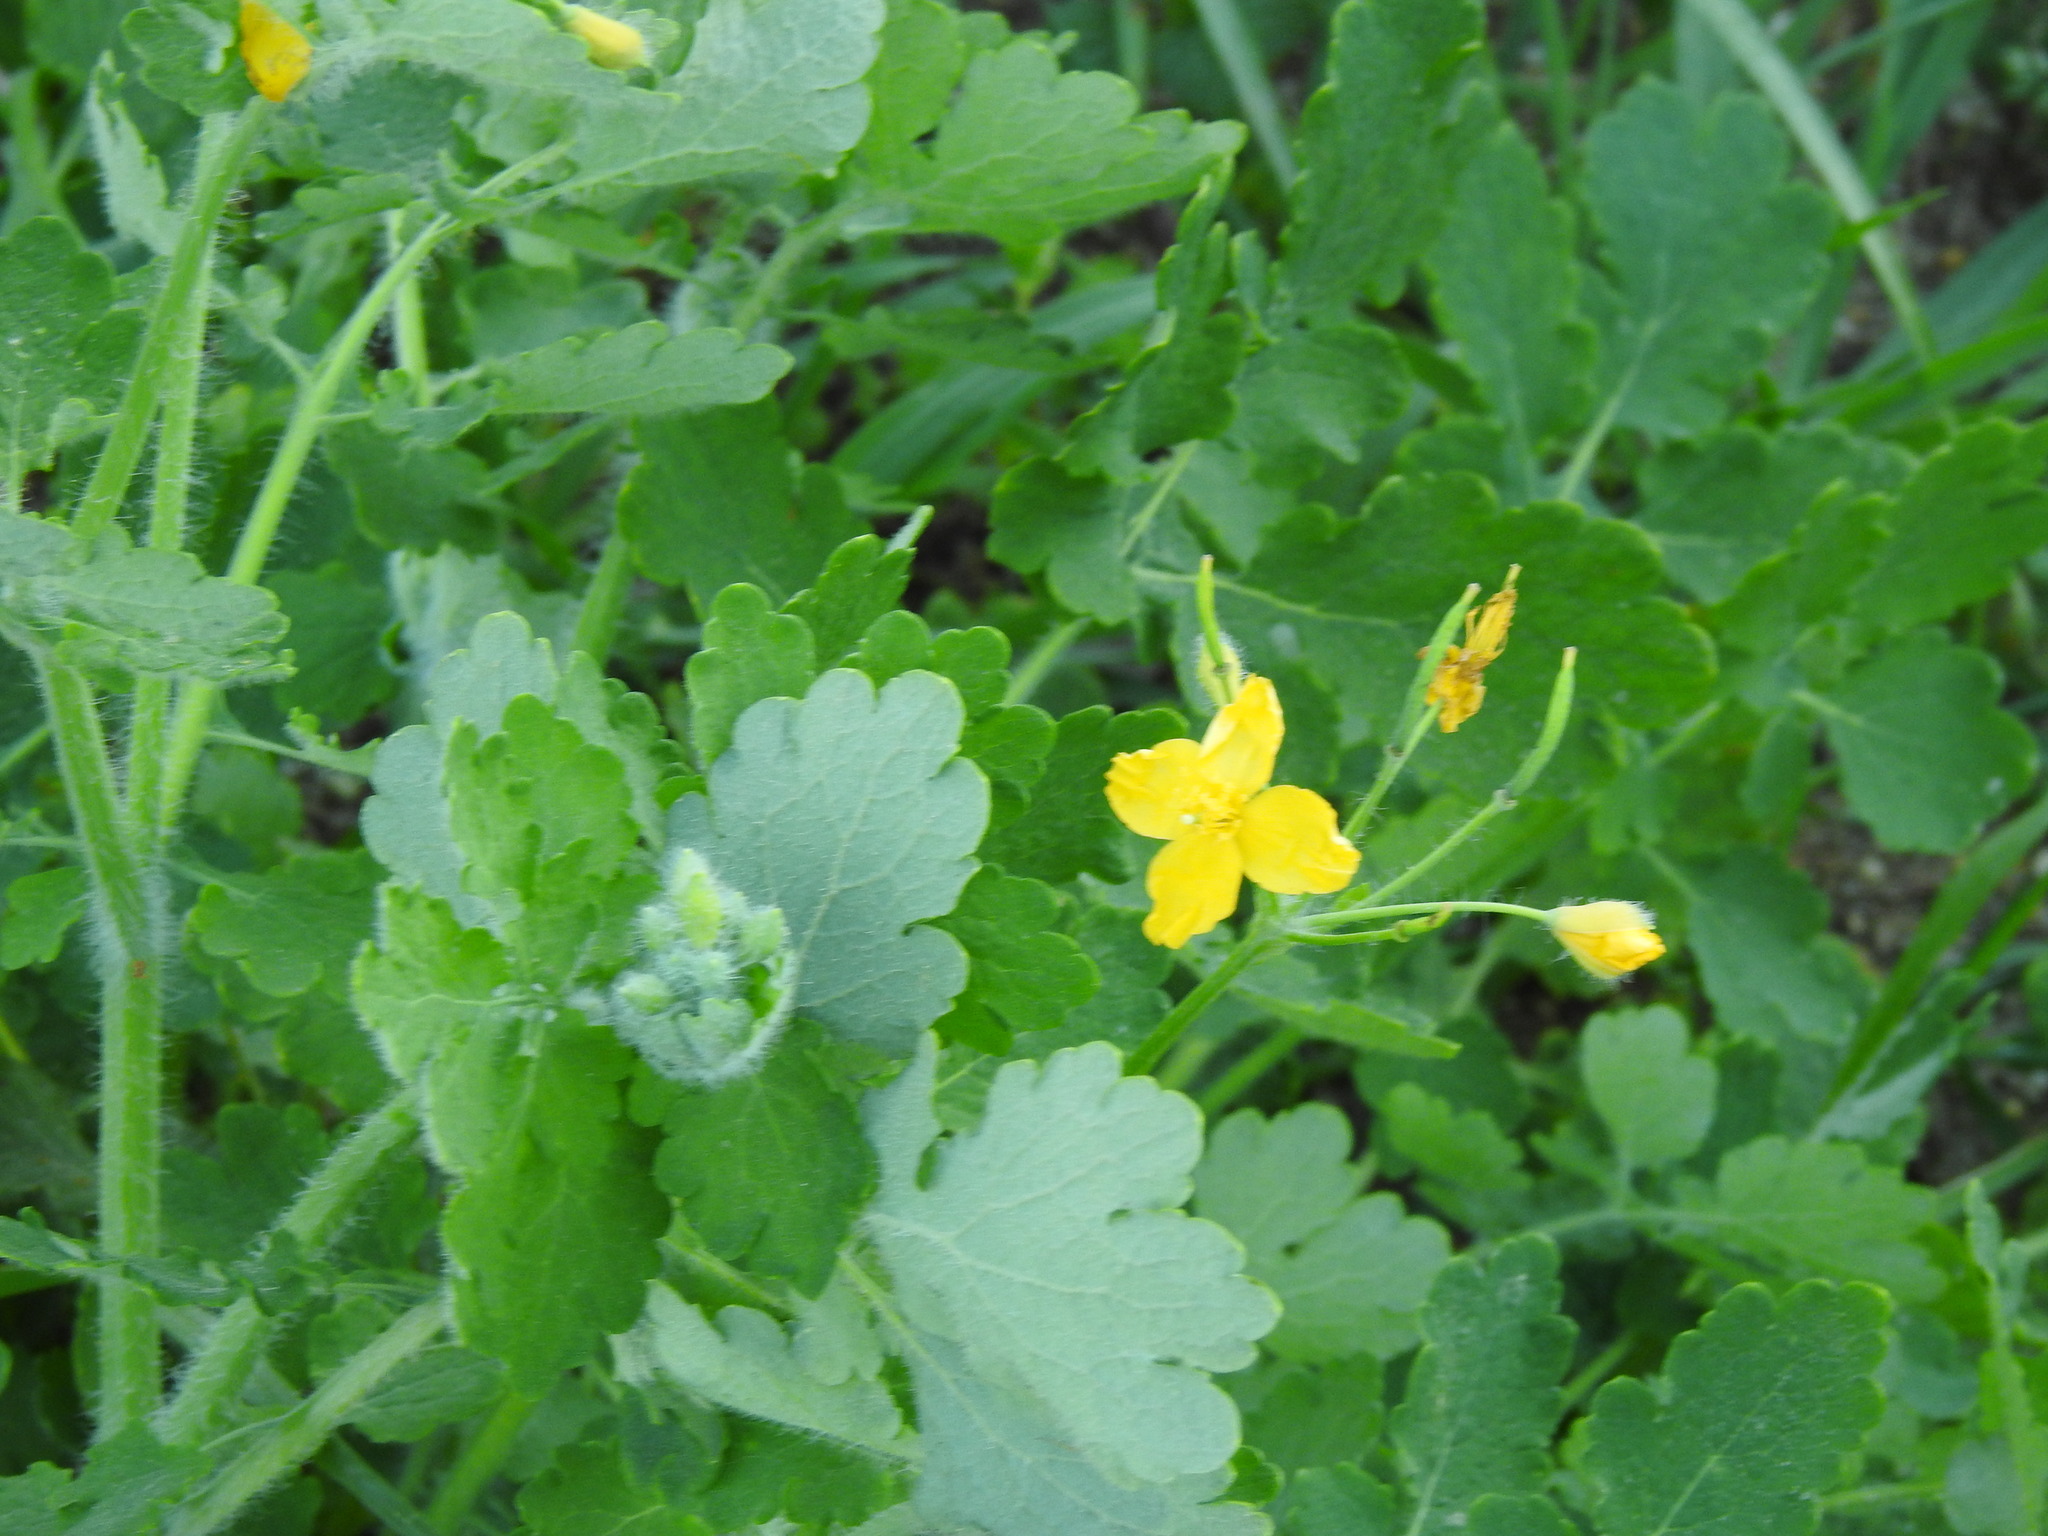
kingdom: Plantae
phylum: Tracheophyta
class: Magnoliopsida
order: Ranunculales
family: Papaveraceae
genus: Chelidonium
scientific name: Chelidonium majus
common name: Greater celandine
